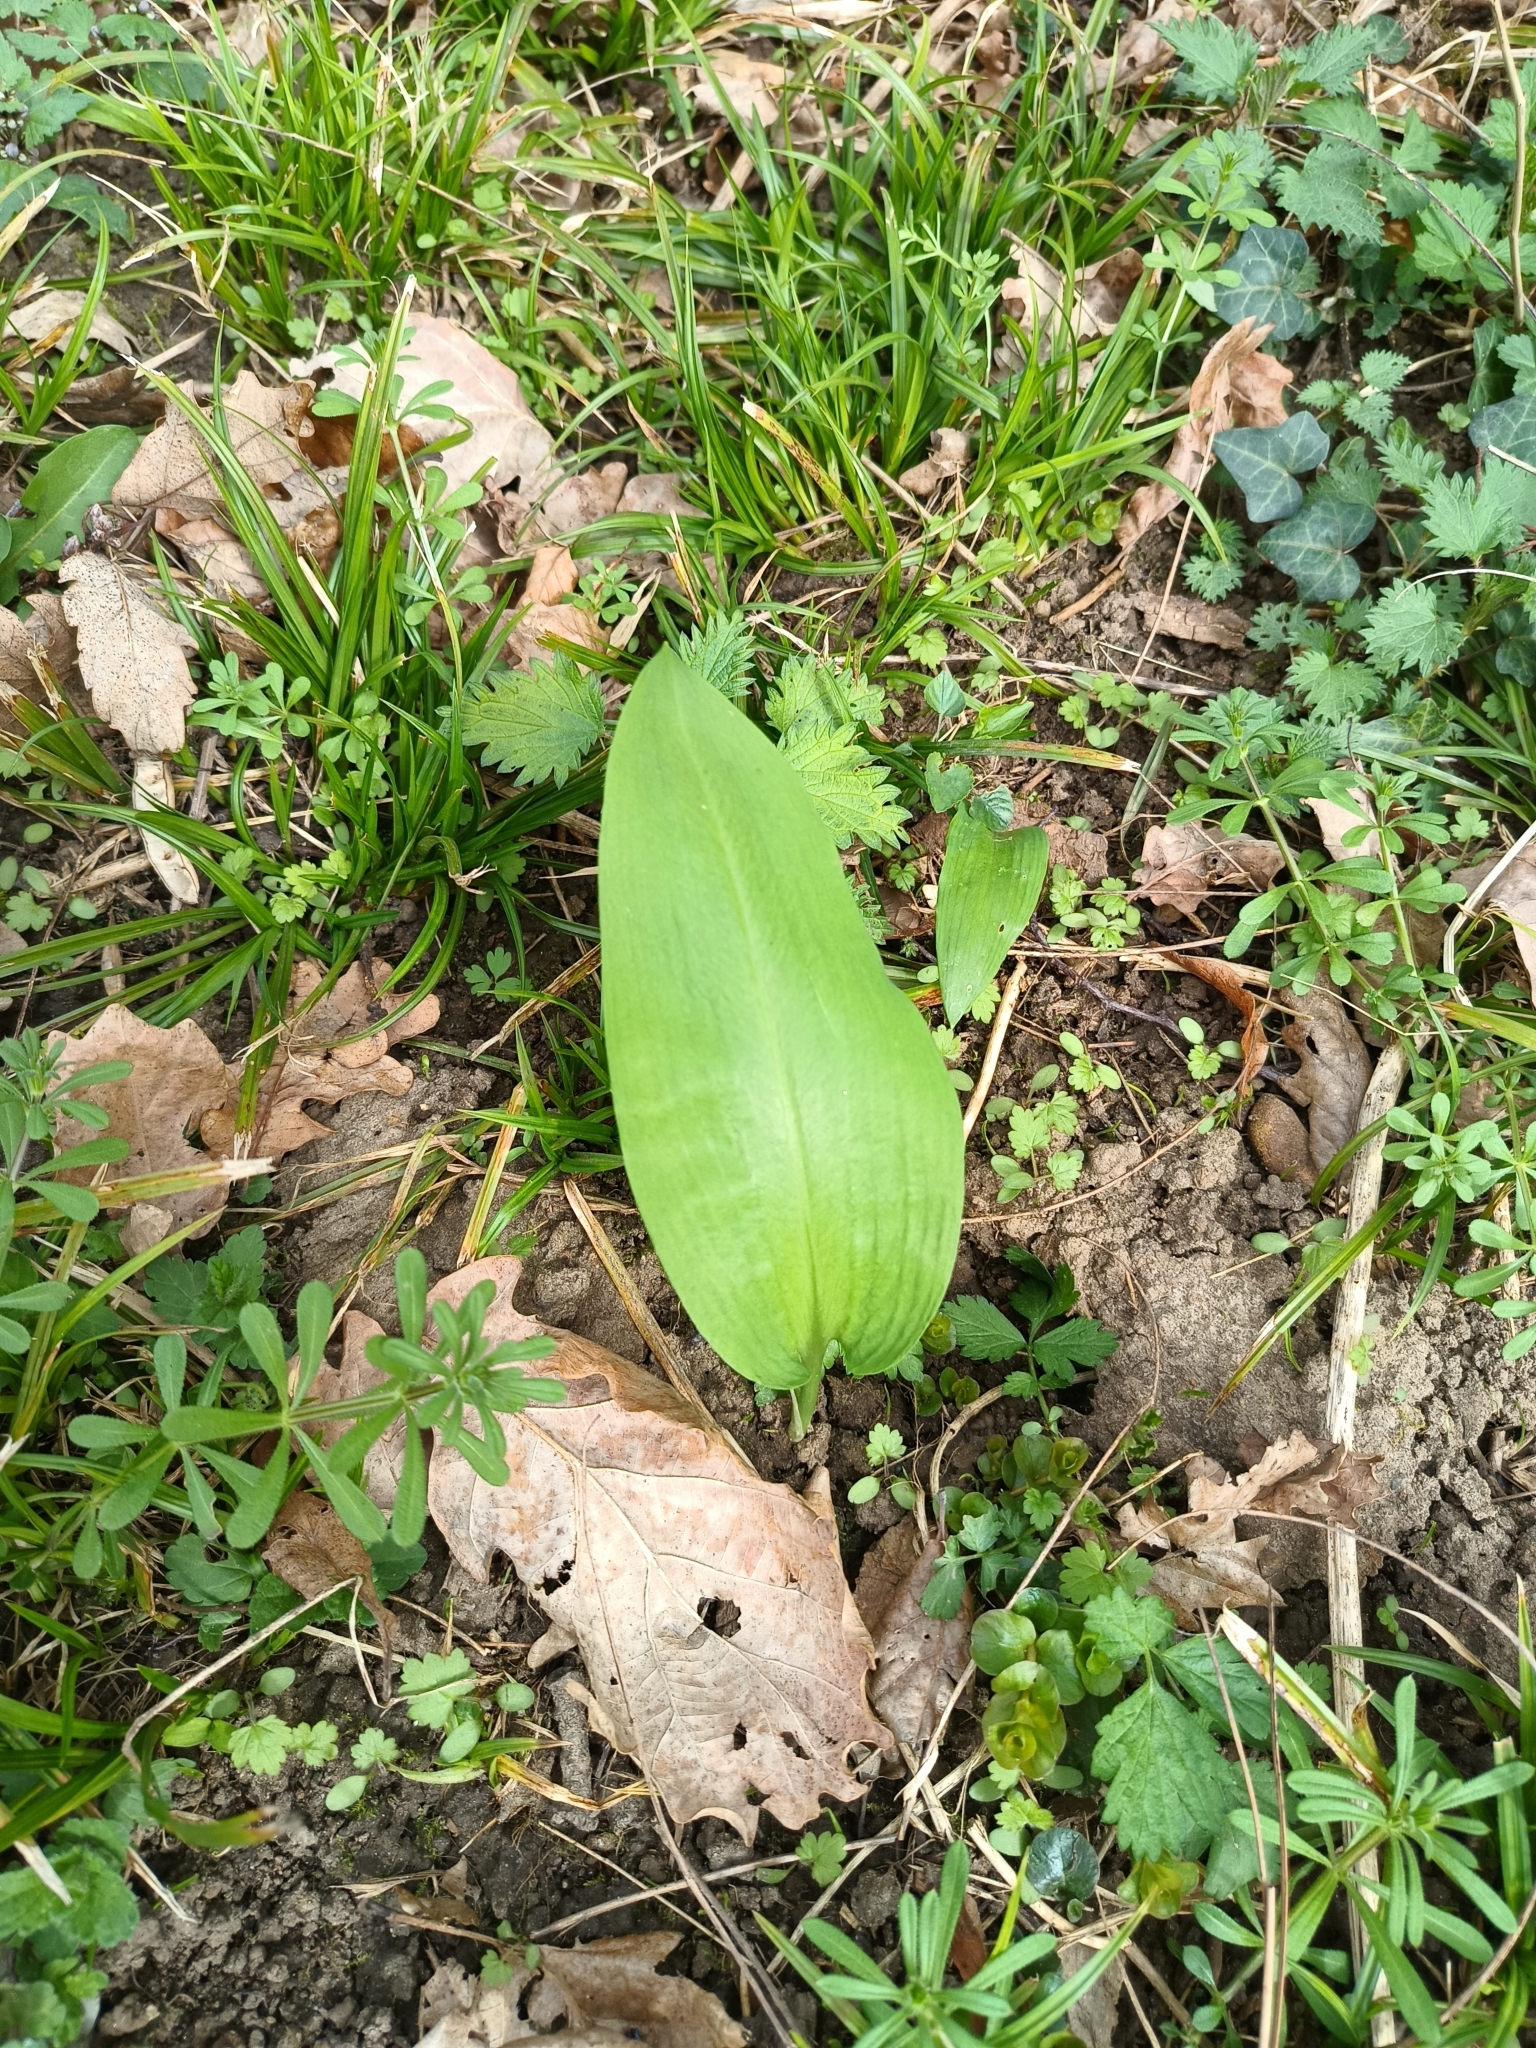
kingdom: Plantae
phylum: Tracheophyta
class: Liliopsida
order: Asparagales
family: Amaryllidaceae
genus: Allium
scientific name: Allium ursinum
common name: Ramsons
